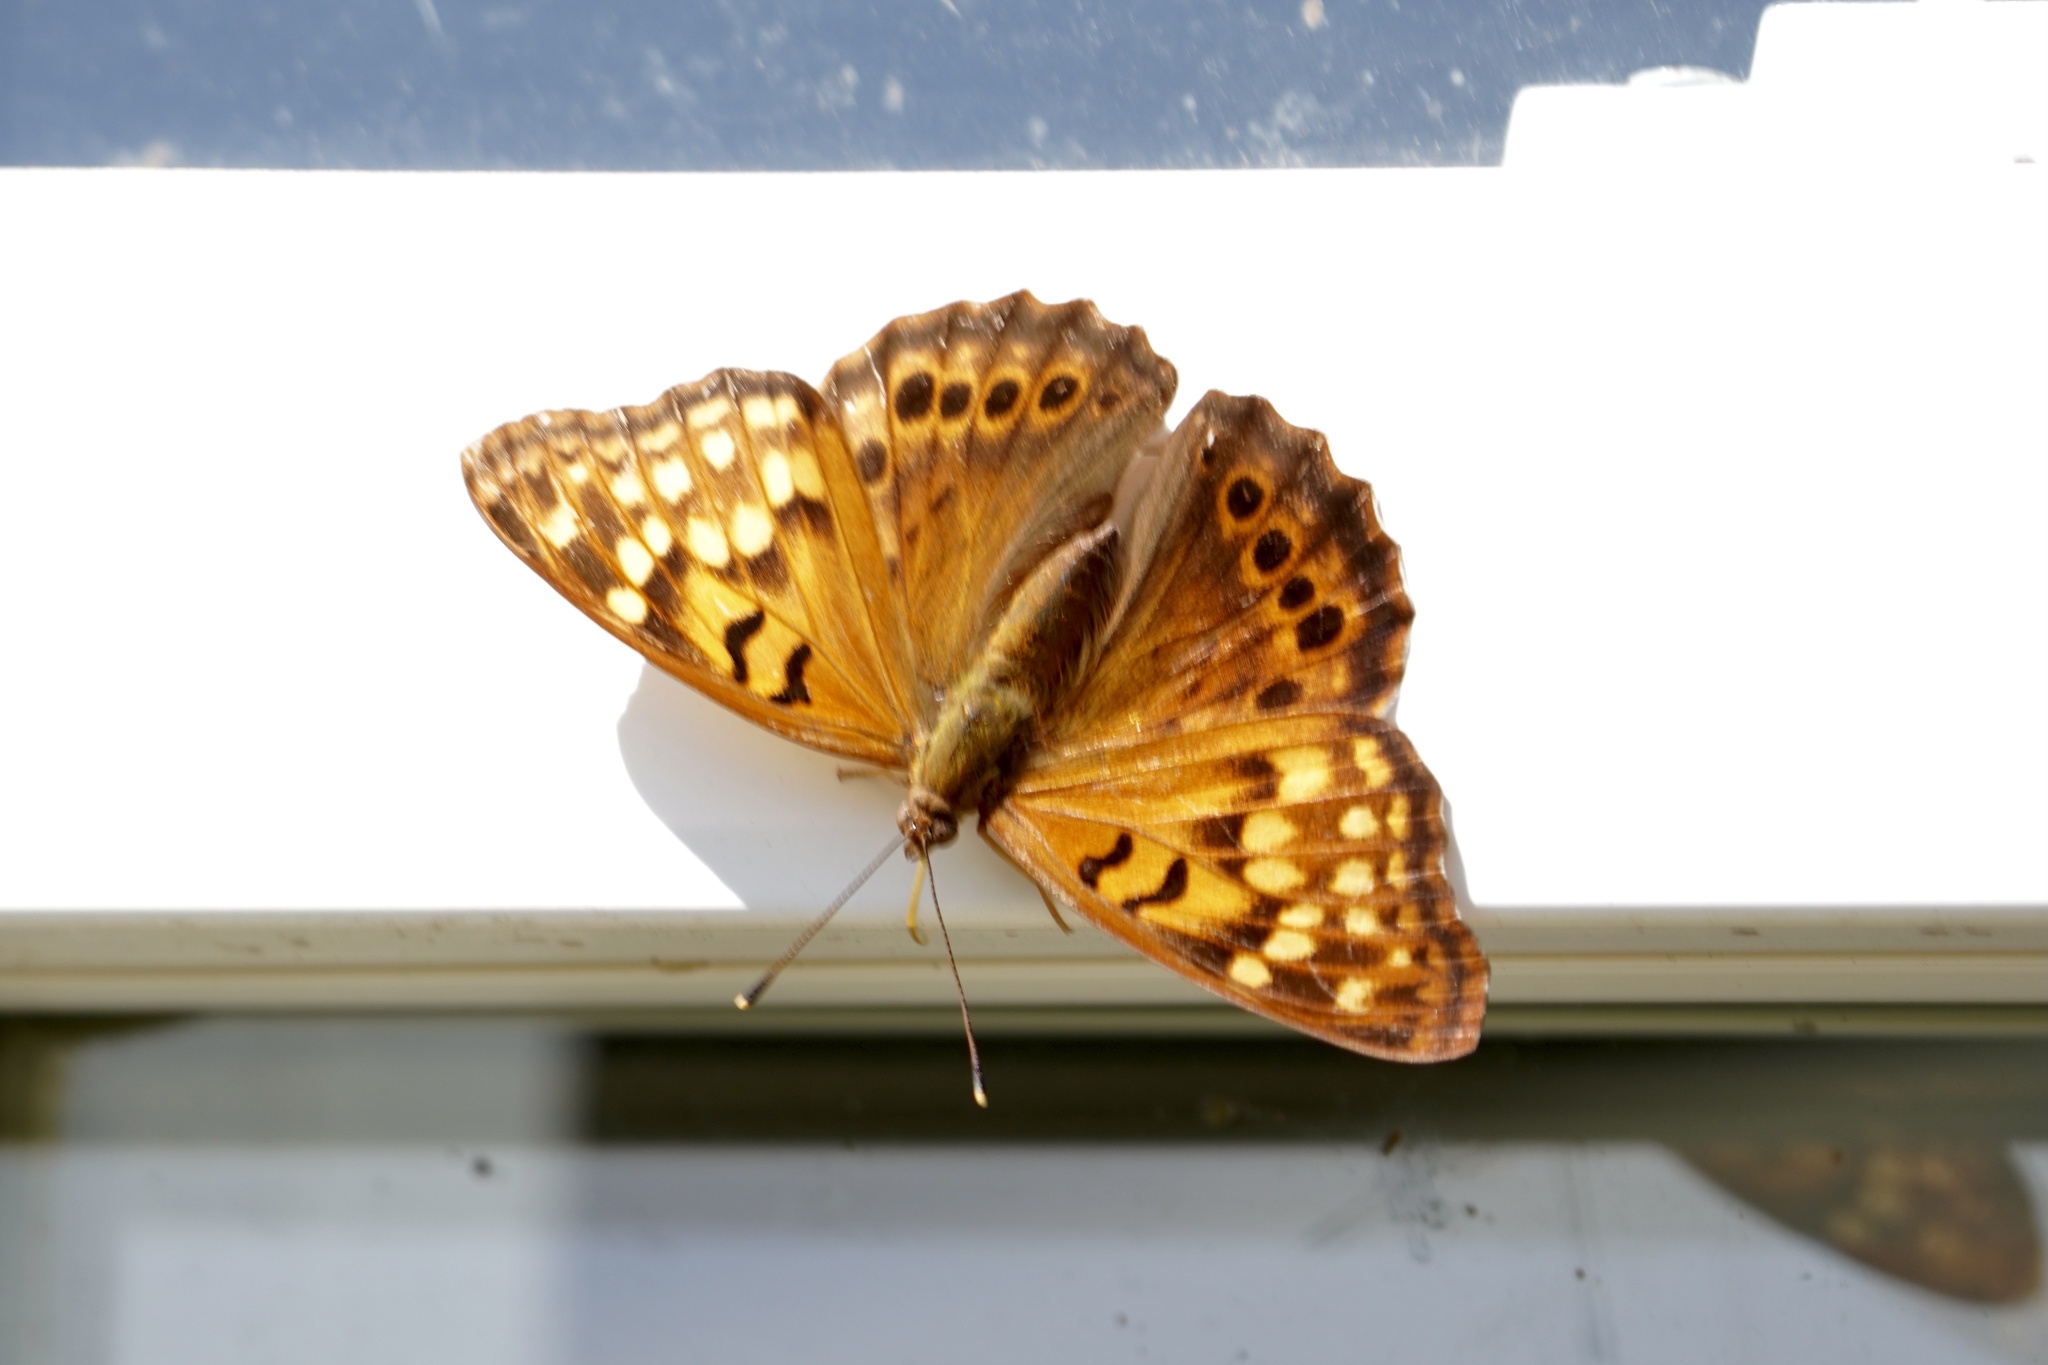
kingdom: Animalia
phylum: Arthropoda
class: Insecta
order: Lepidoptera
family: Nymphalidae
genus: Asterocampa
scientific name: Asterocampa clyton
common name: Tawny emperor
